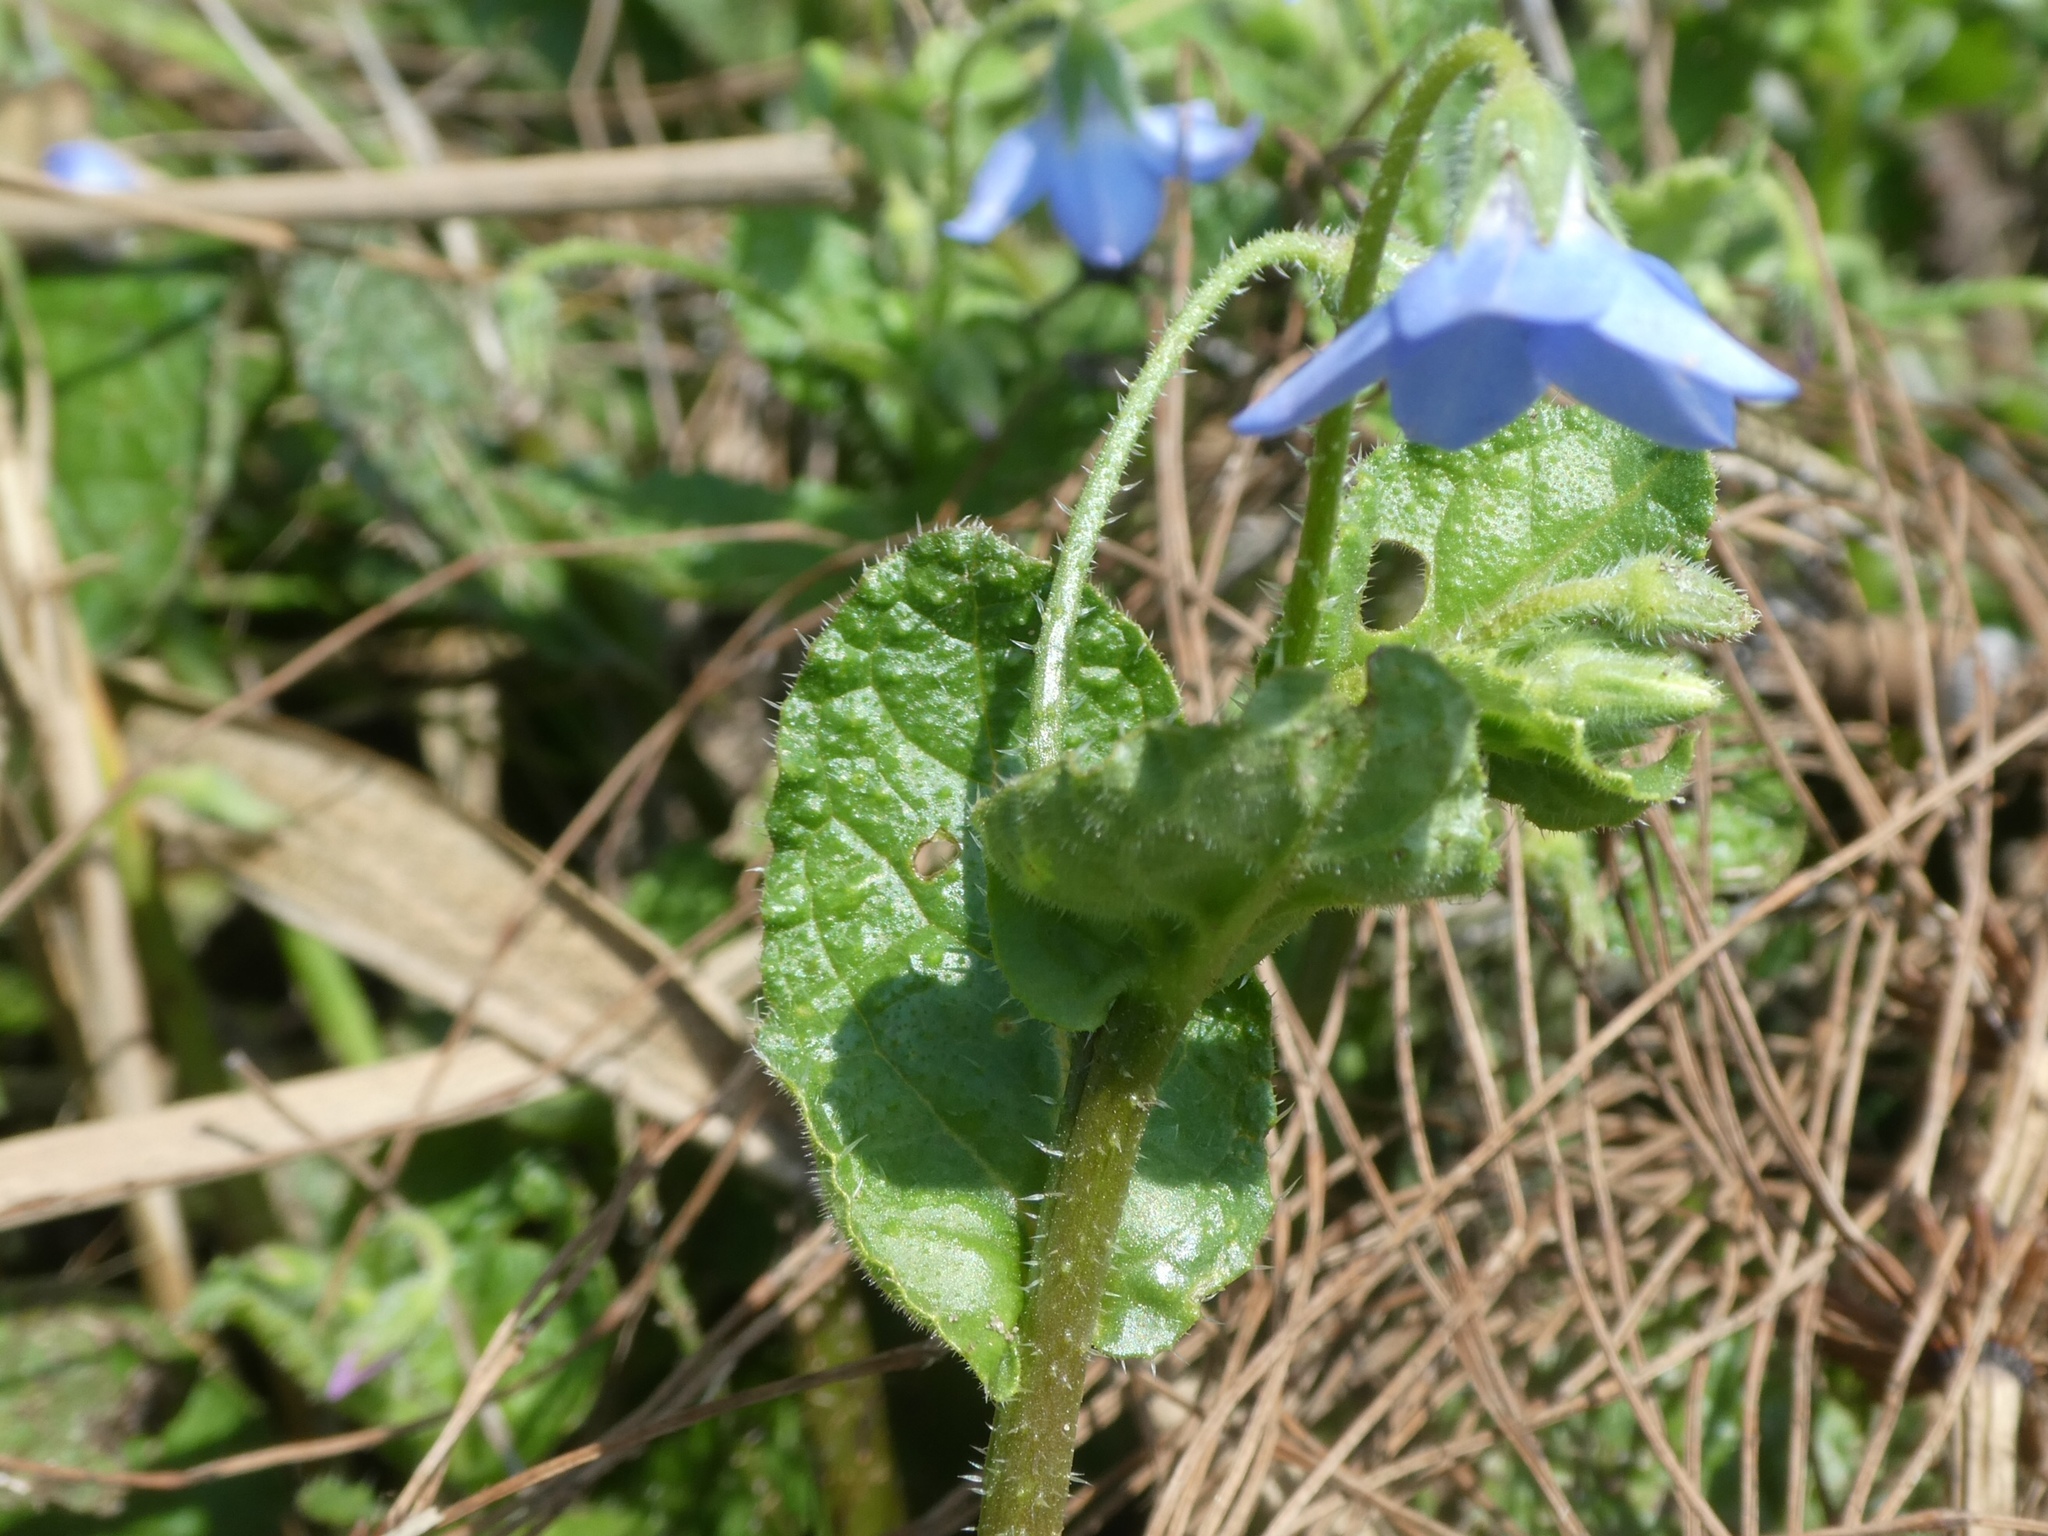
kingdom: Plantae
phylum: Tracheophyta
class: Magnoliopsida
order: Boraginales
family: Boraginaceae
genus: Borago
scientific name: Borago pygmaea
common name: Slender borage
